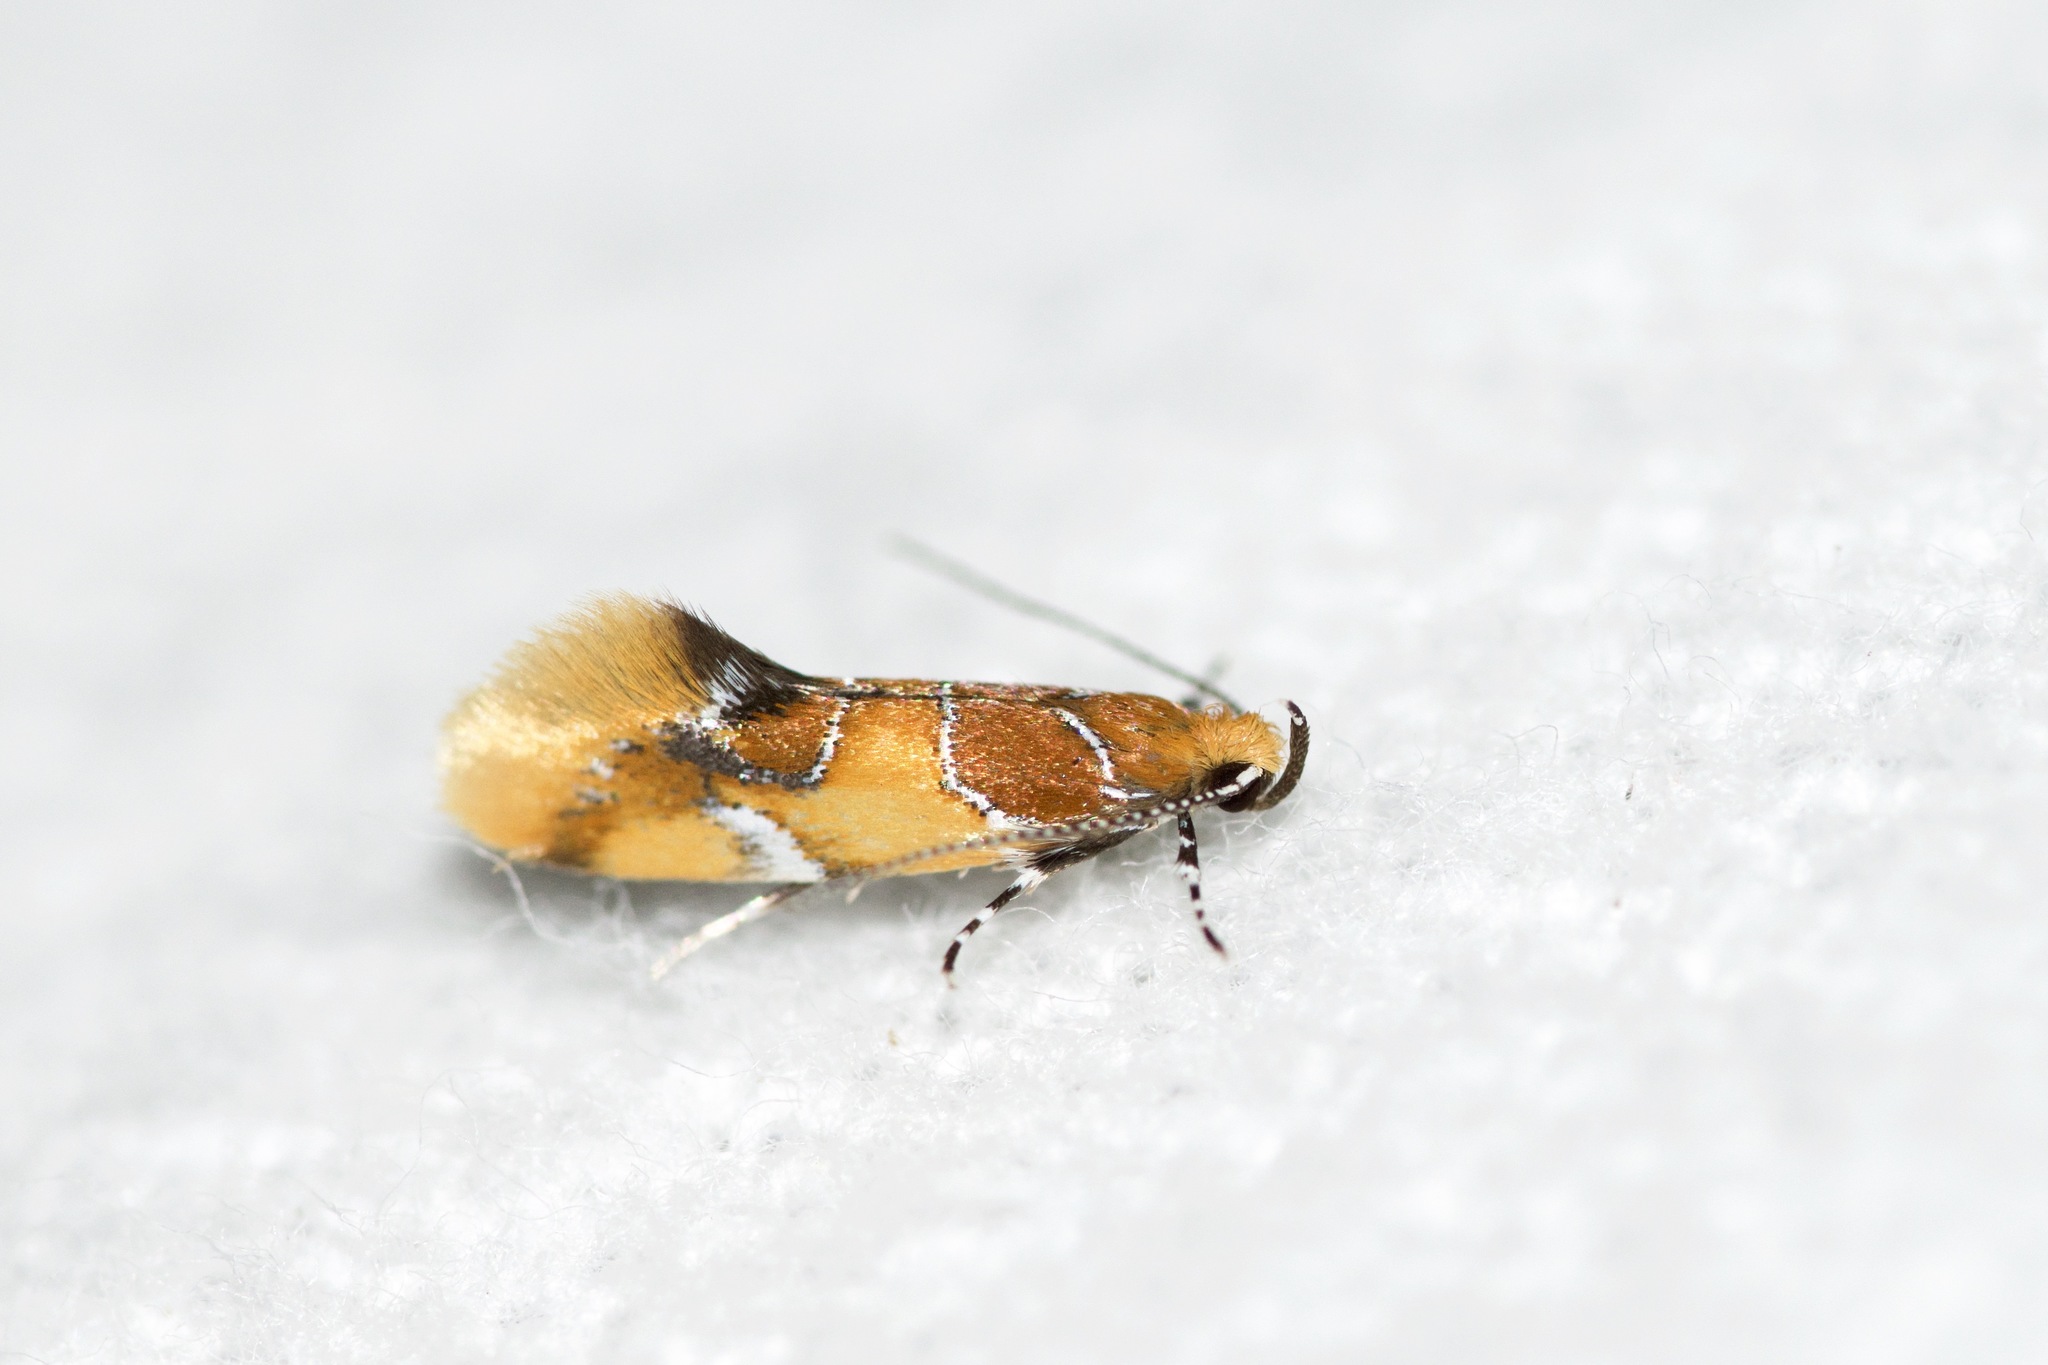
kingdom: Animalia
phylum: Arthropoda
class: Insecta
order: Lepidoptera
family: Oecophoridae
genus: Callima
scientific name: Callima argenticinctella
